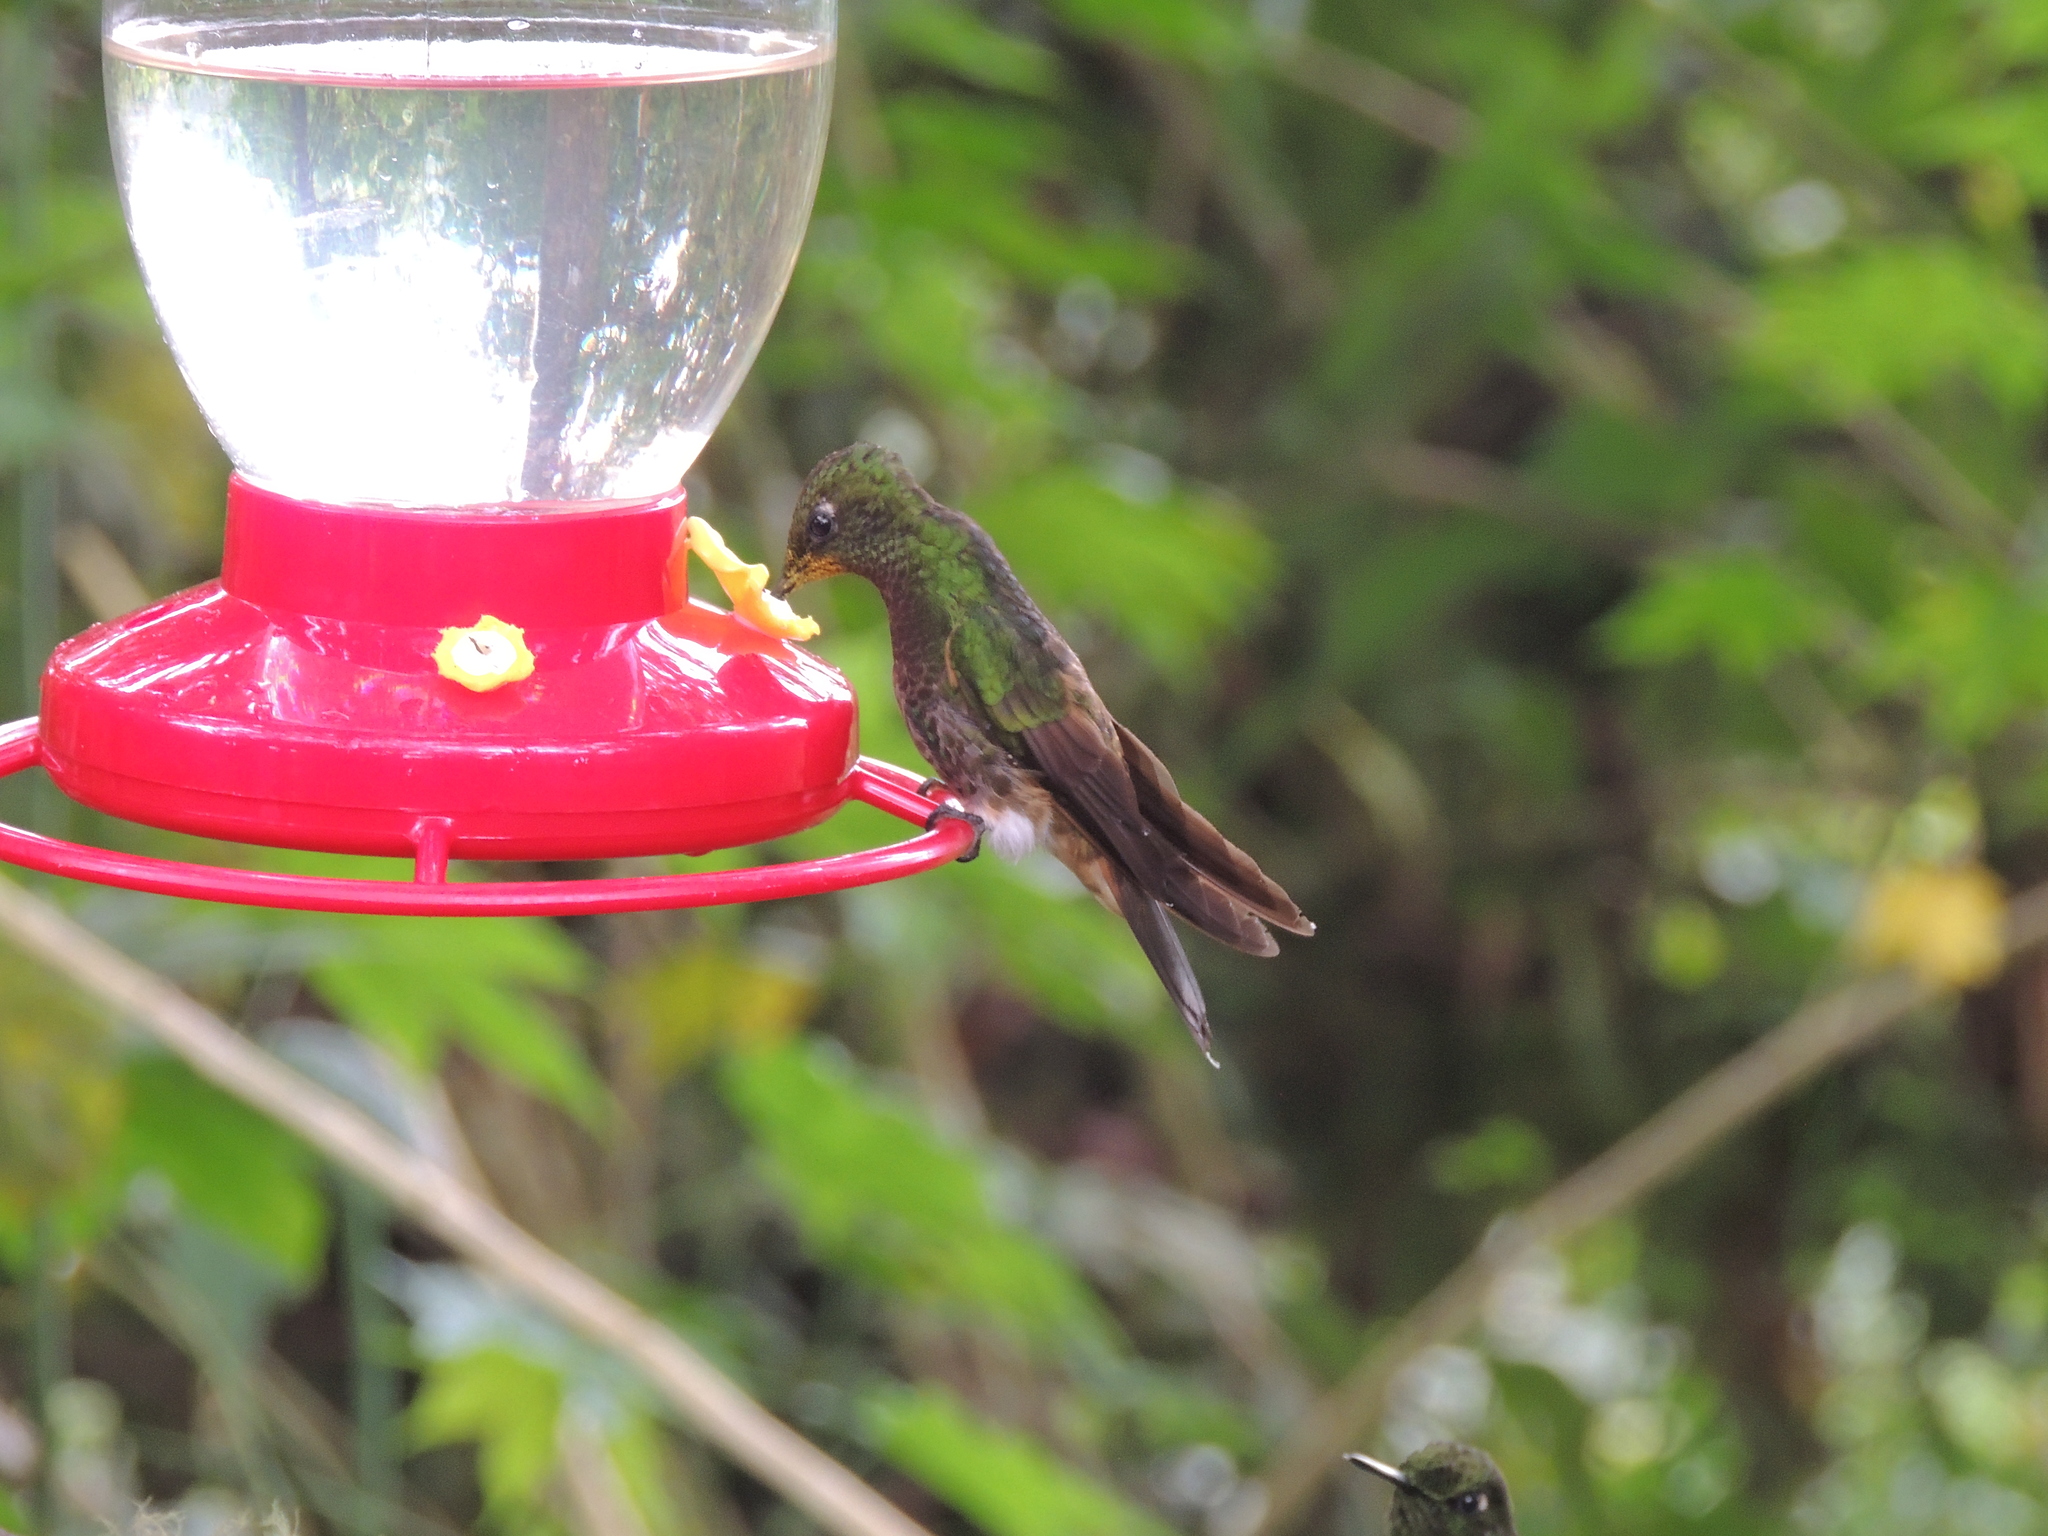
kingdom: Animalia
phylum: Chordata
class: Aves
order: Apodiformes
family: Trochilidae
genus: Boissonneaua
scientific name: Boissonneaua flavescens
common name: Buff-tailed coronet
